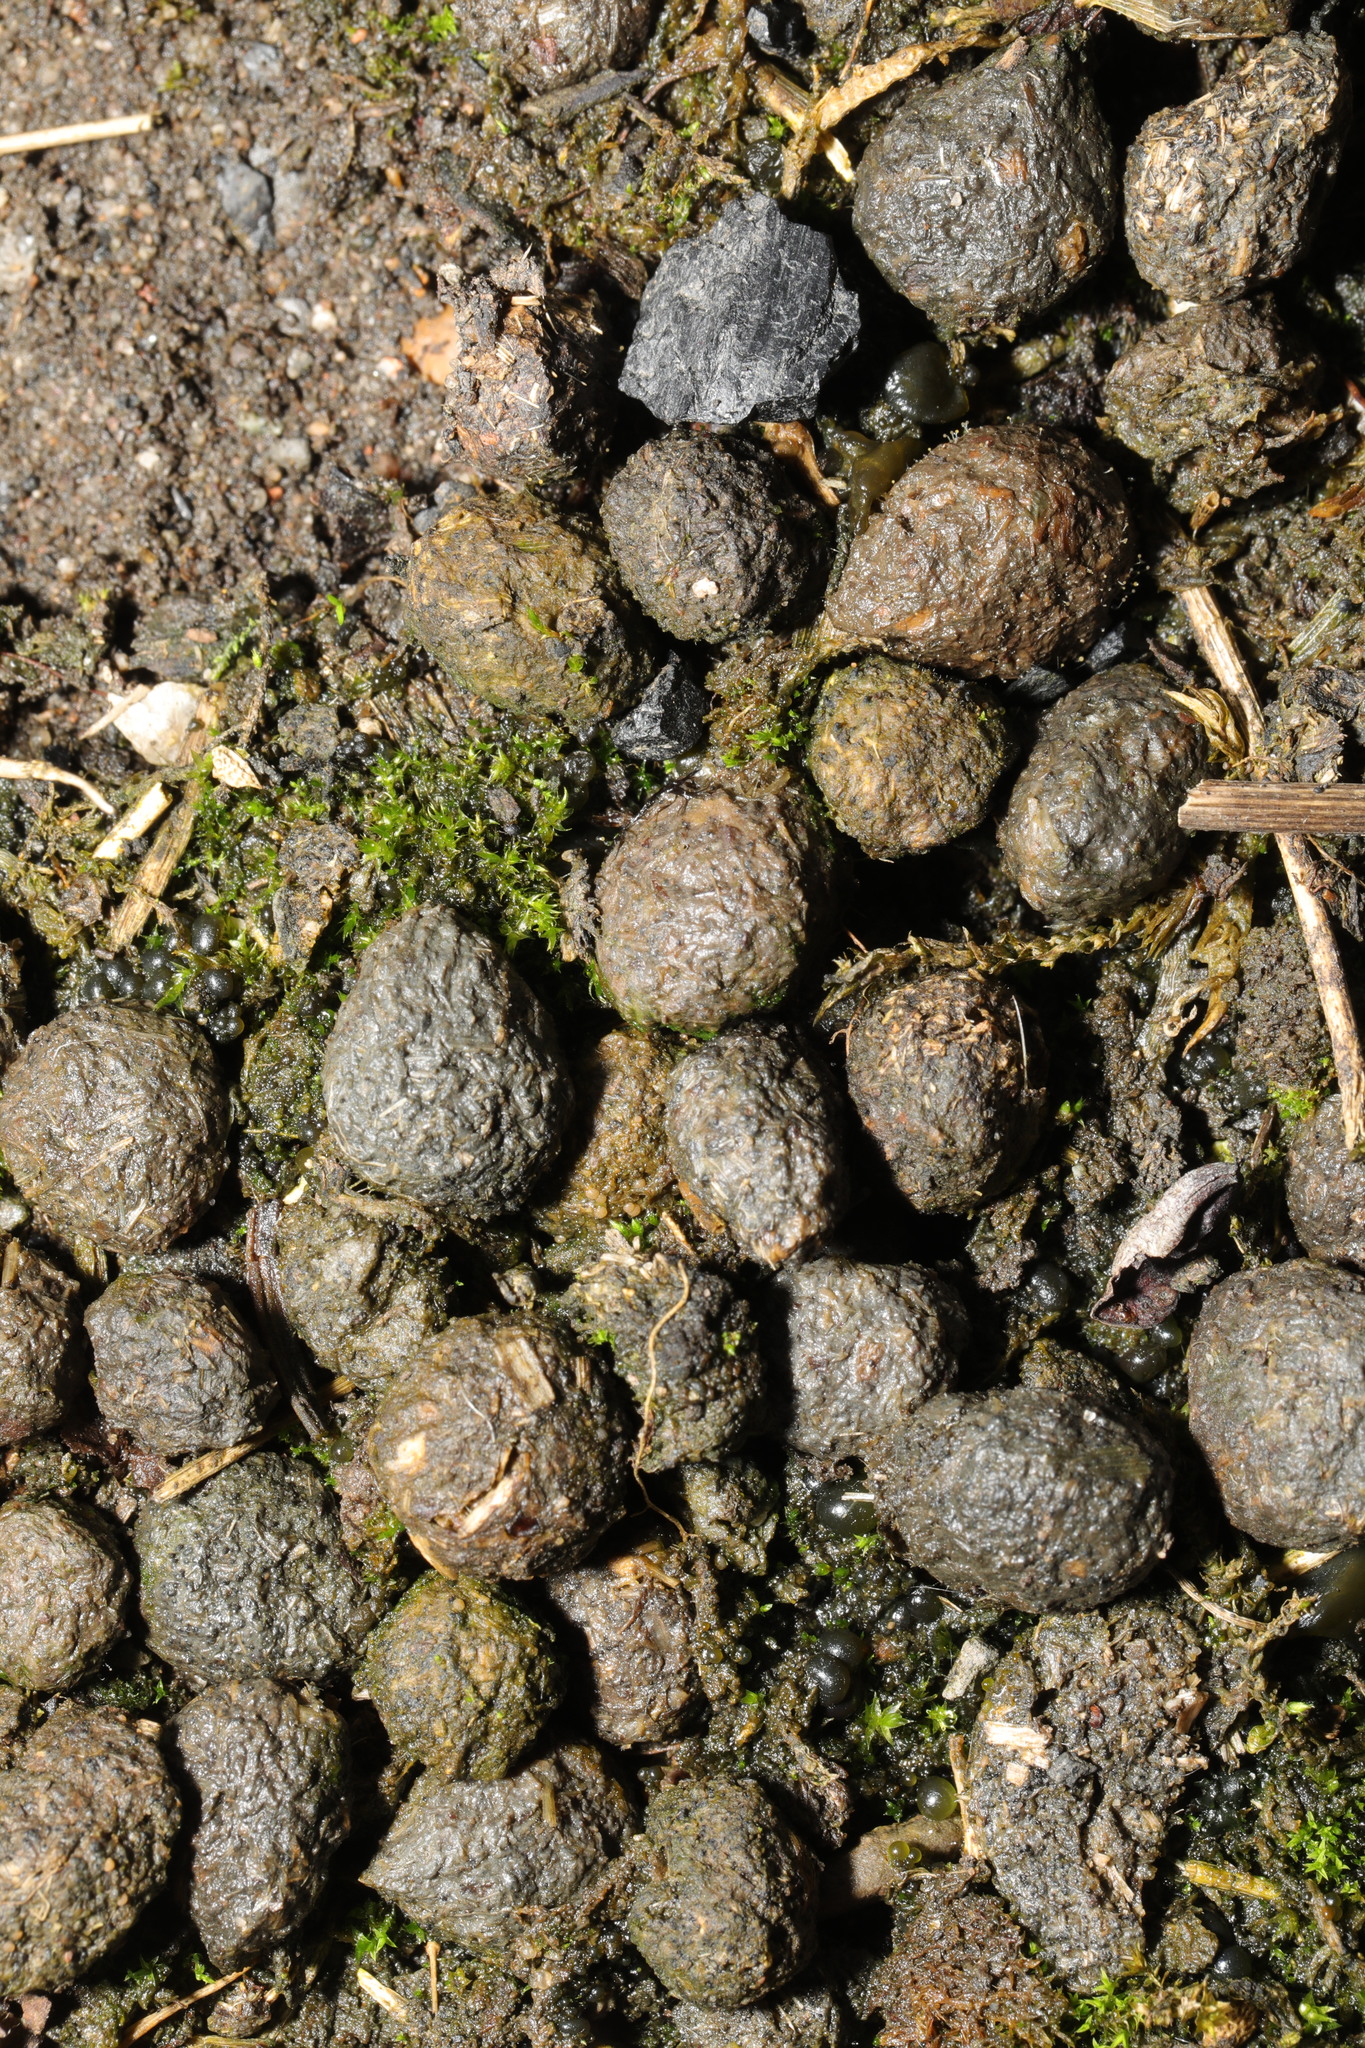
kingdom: Animalia
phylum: Chordata
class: Mammalia
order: Lagomorpha
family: Leporidae
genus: Oryctolagus
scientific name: Oryctolagus cuniculus
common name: European rabbit
